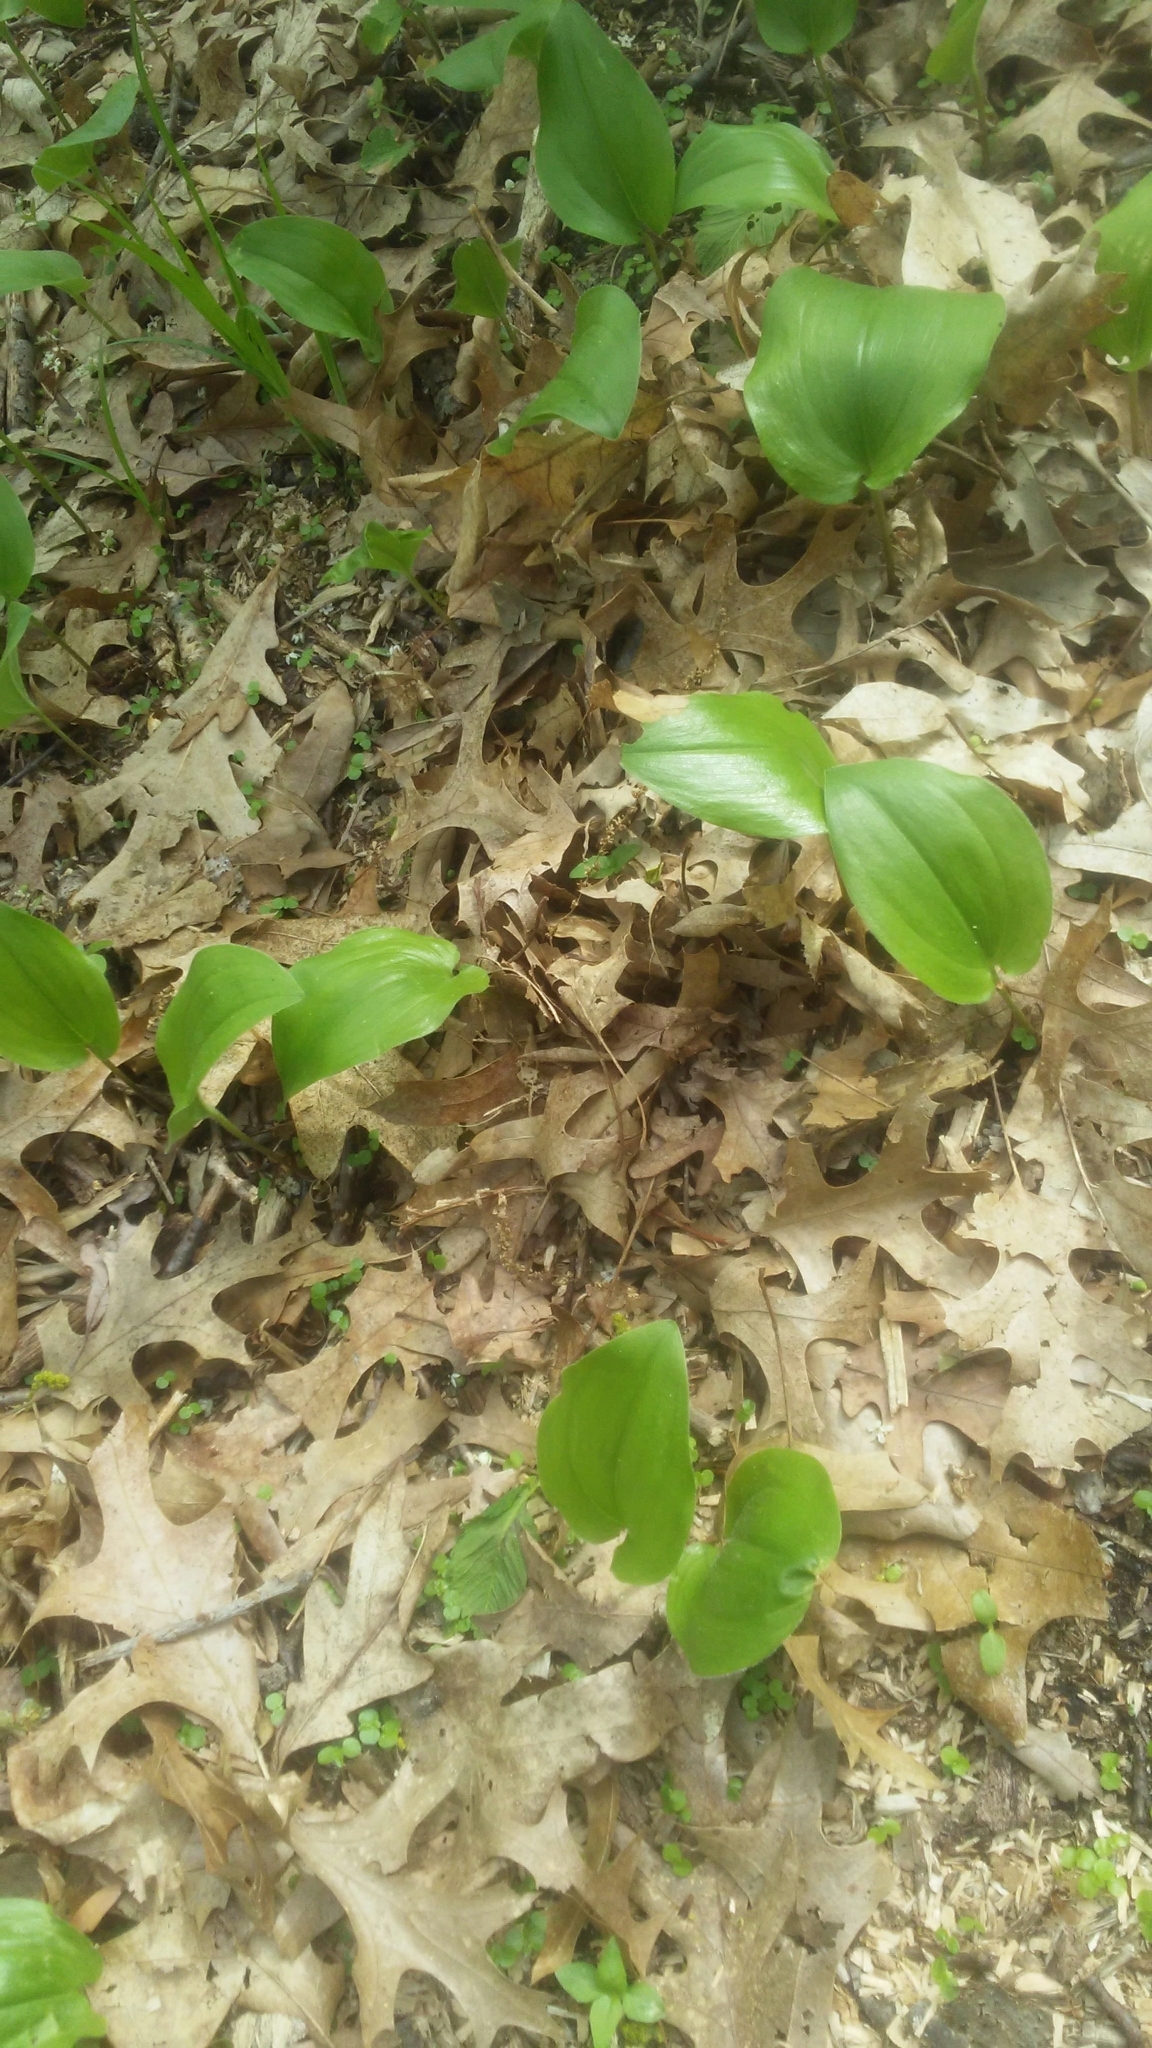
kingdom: Plantae
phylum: Tracheophyta
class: Liliopsida
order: Asparagales
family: Asparagaceae
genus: Maianthemum
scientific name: Maianthemum canadense
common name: False lily-of-the-valley
